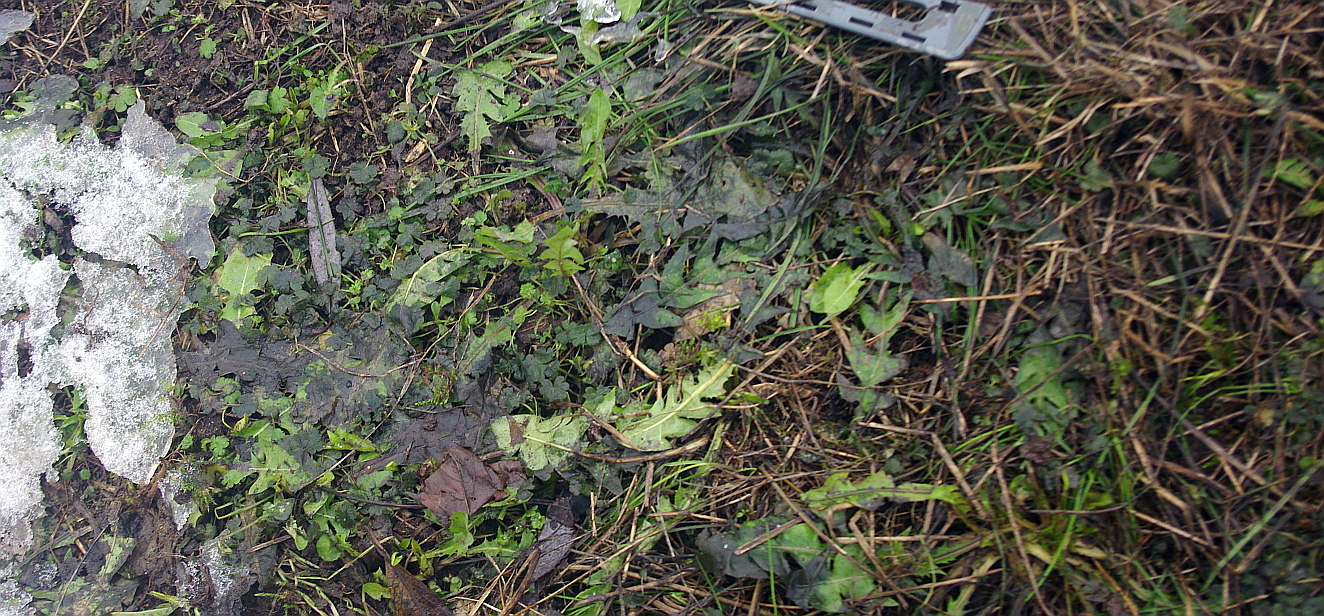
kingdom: Plantae
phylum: Tracheophyta
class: Magnoliopsida
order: Asterales
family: Asteraceae
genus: Taraxacum
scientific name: Taraxacum officinale
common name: Common dandelion
